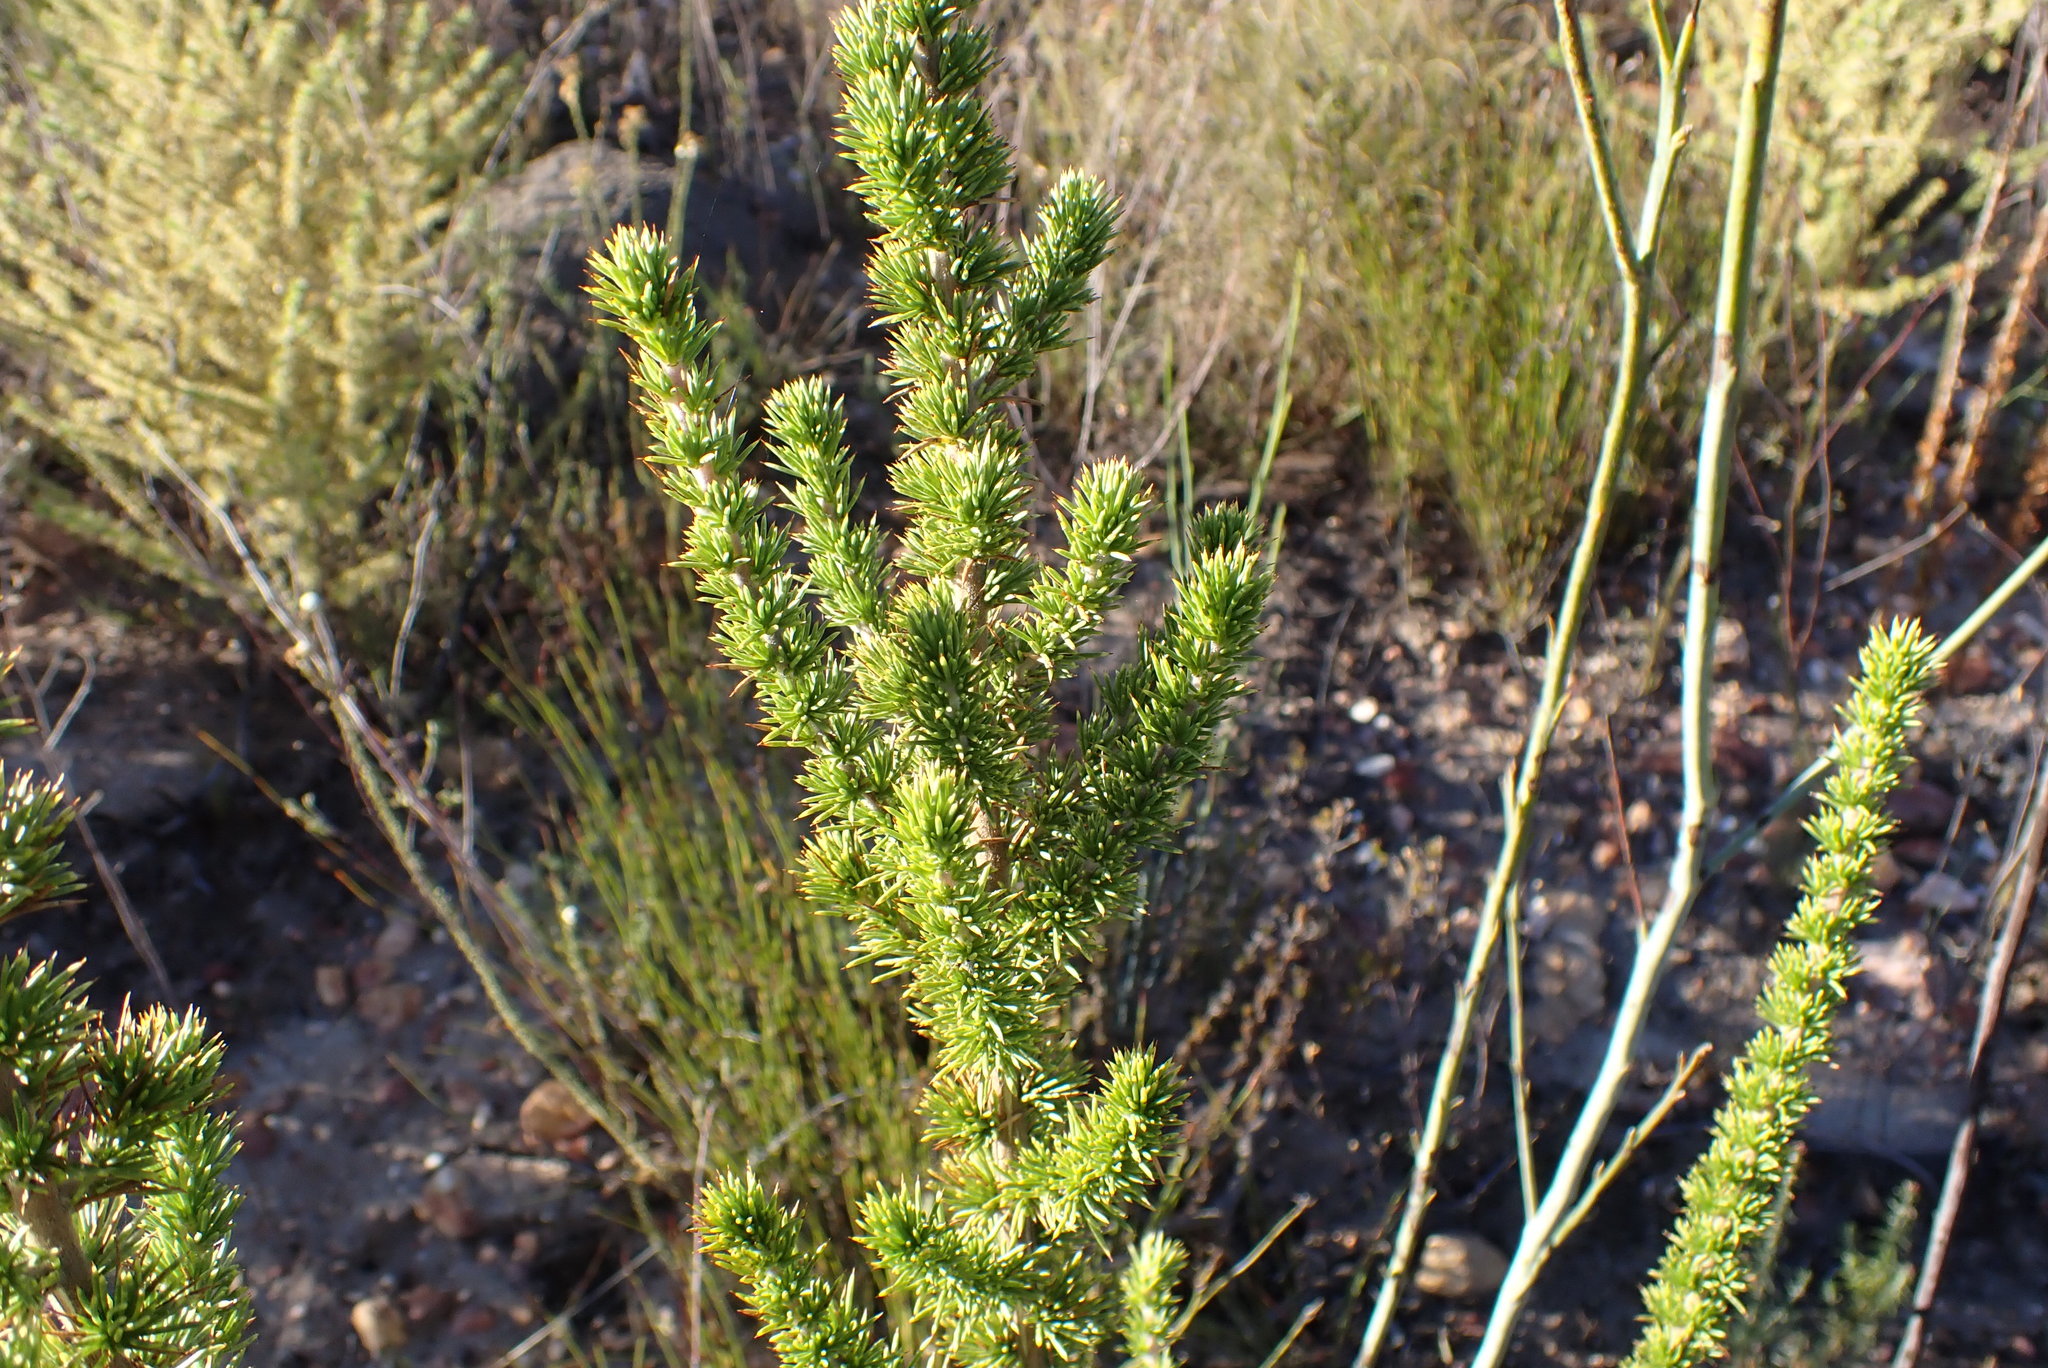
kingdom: Plantae
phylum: Tracheophyta
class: Magnoliopsida
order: Fabales
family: Fabaceae
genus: Aspalathus
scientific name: Aspalathus sceptrumaureum
